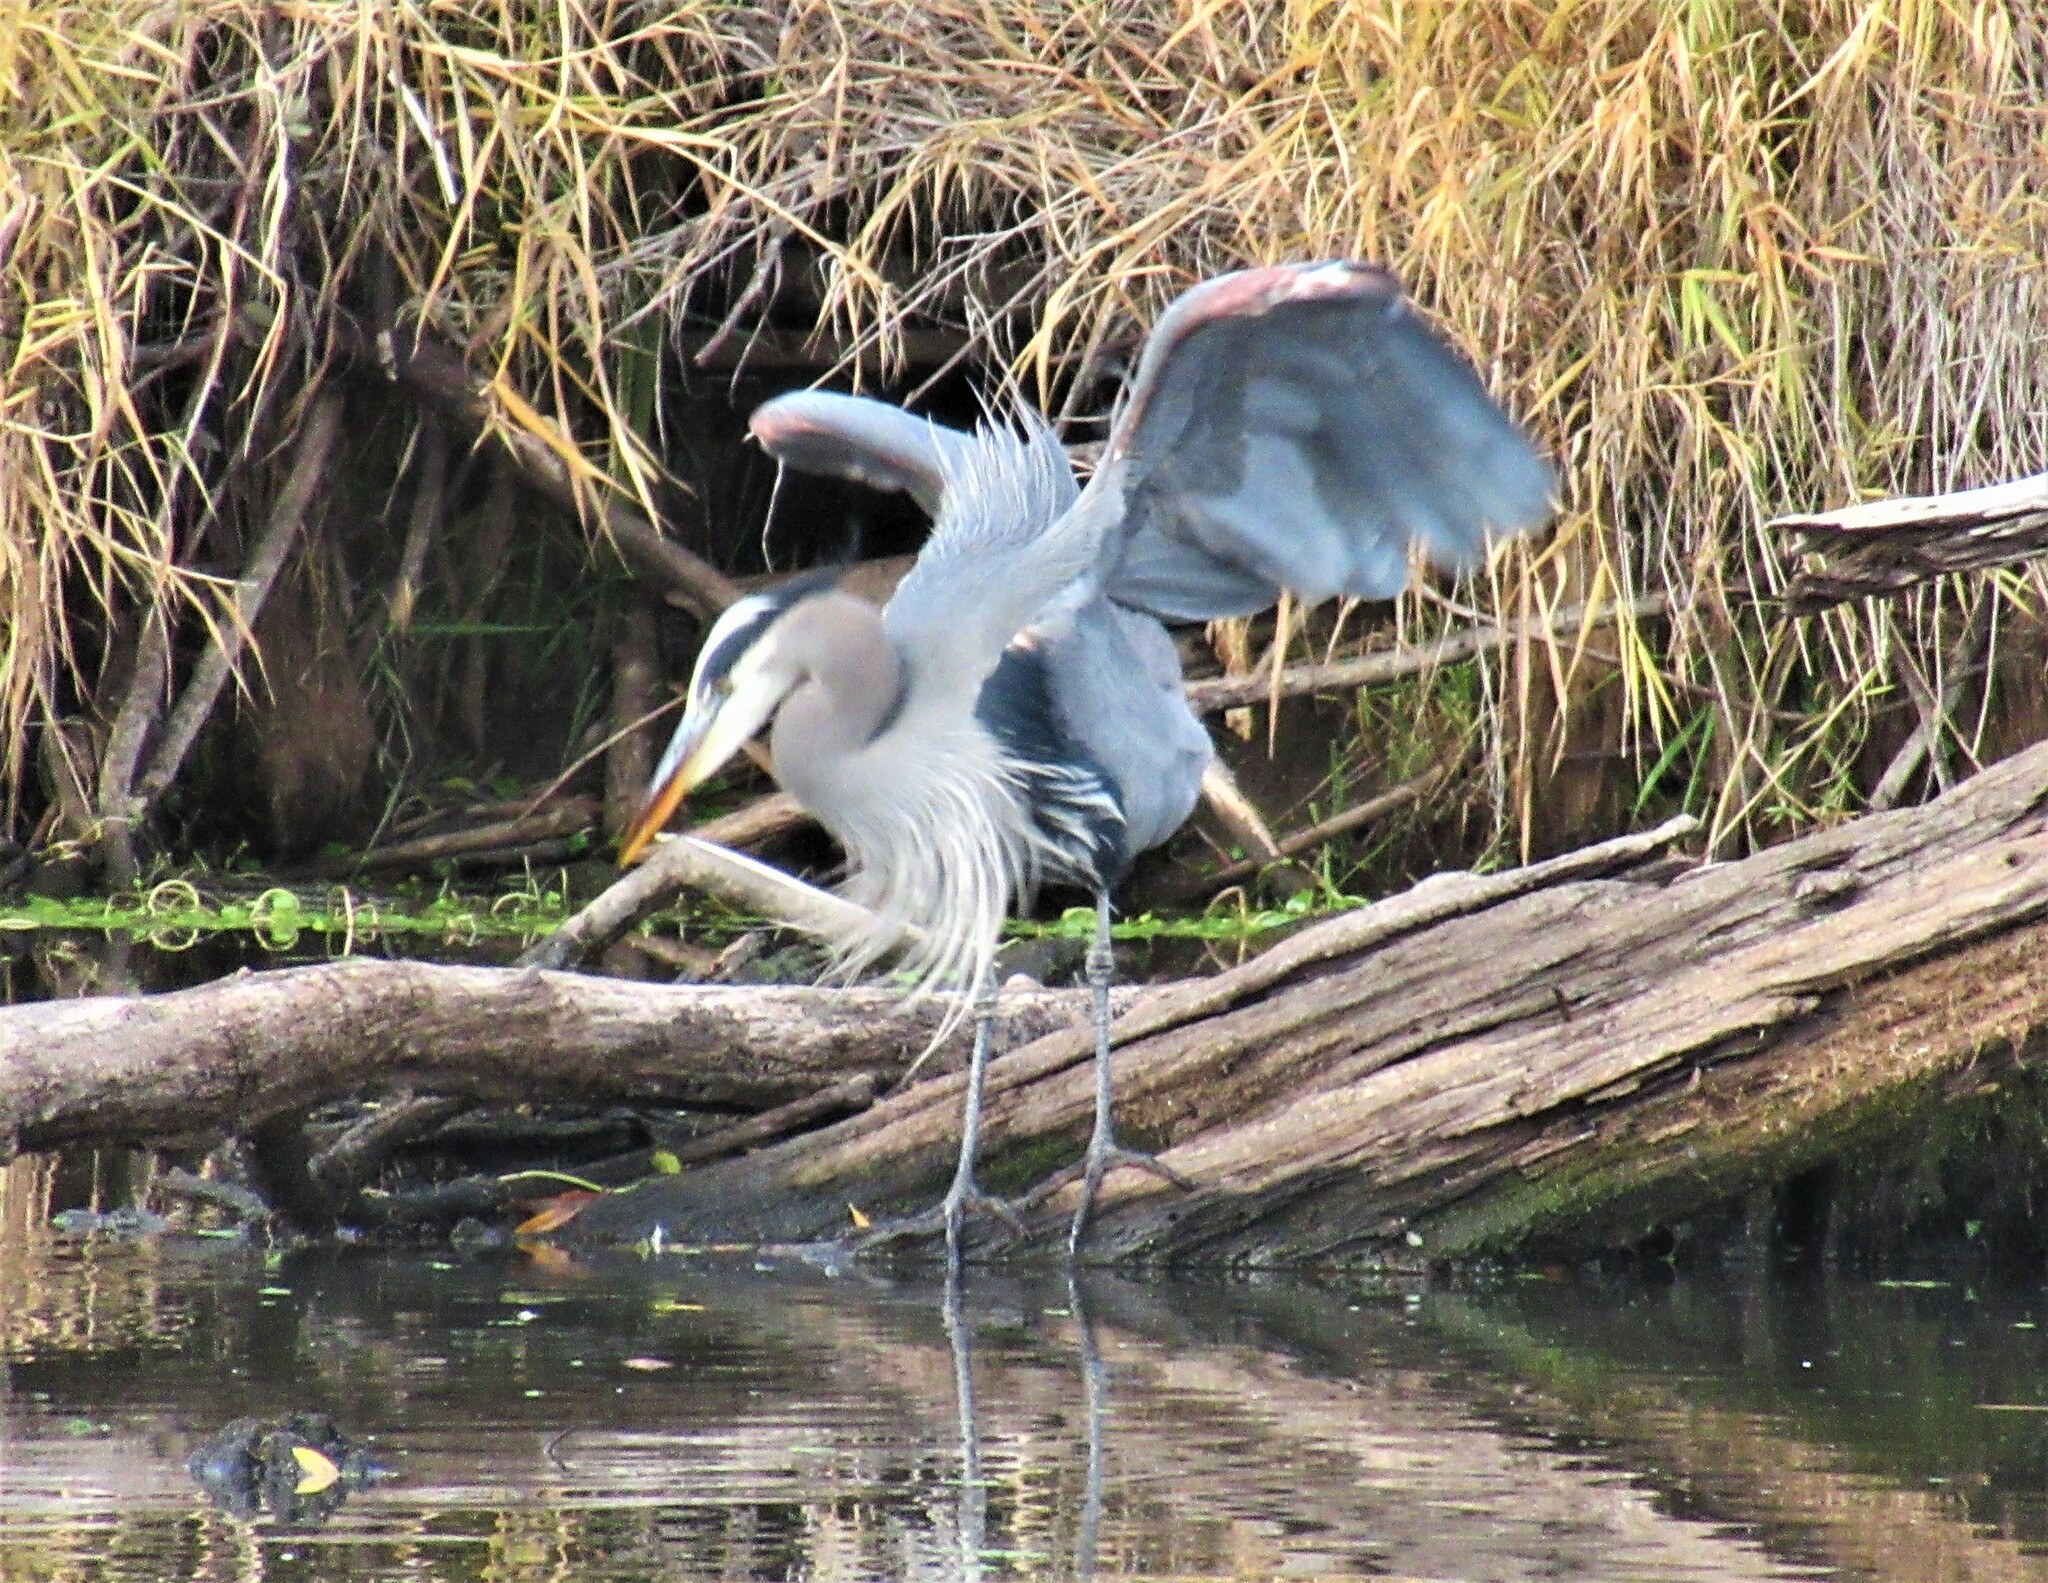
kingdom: Animalia
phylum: Chordata
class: Aves
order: Pelecaniformes
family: Ardeidae
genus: Ardea
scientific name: Ardea herodias
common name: Great blue heron
